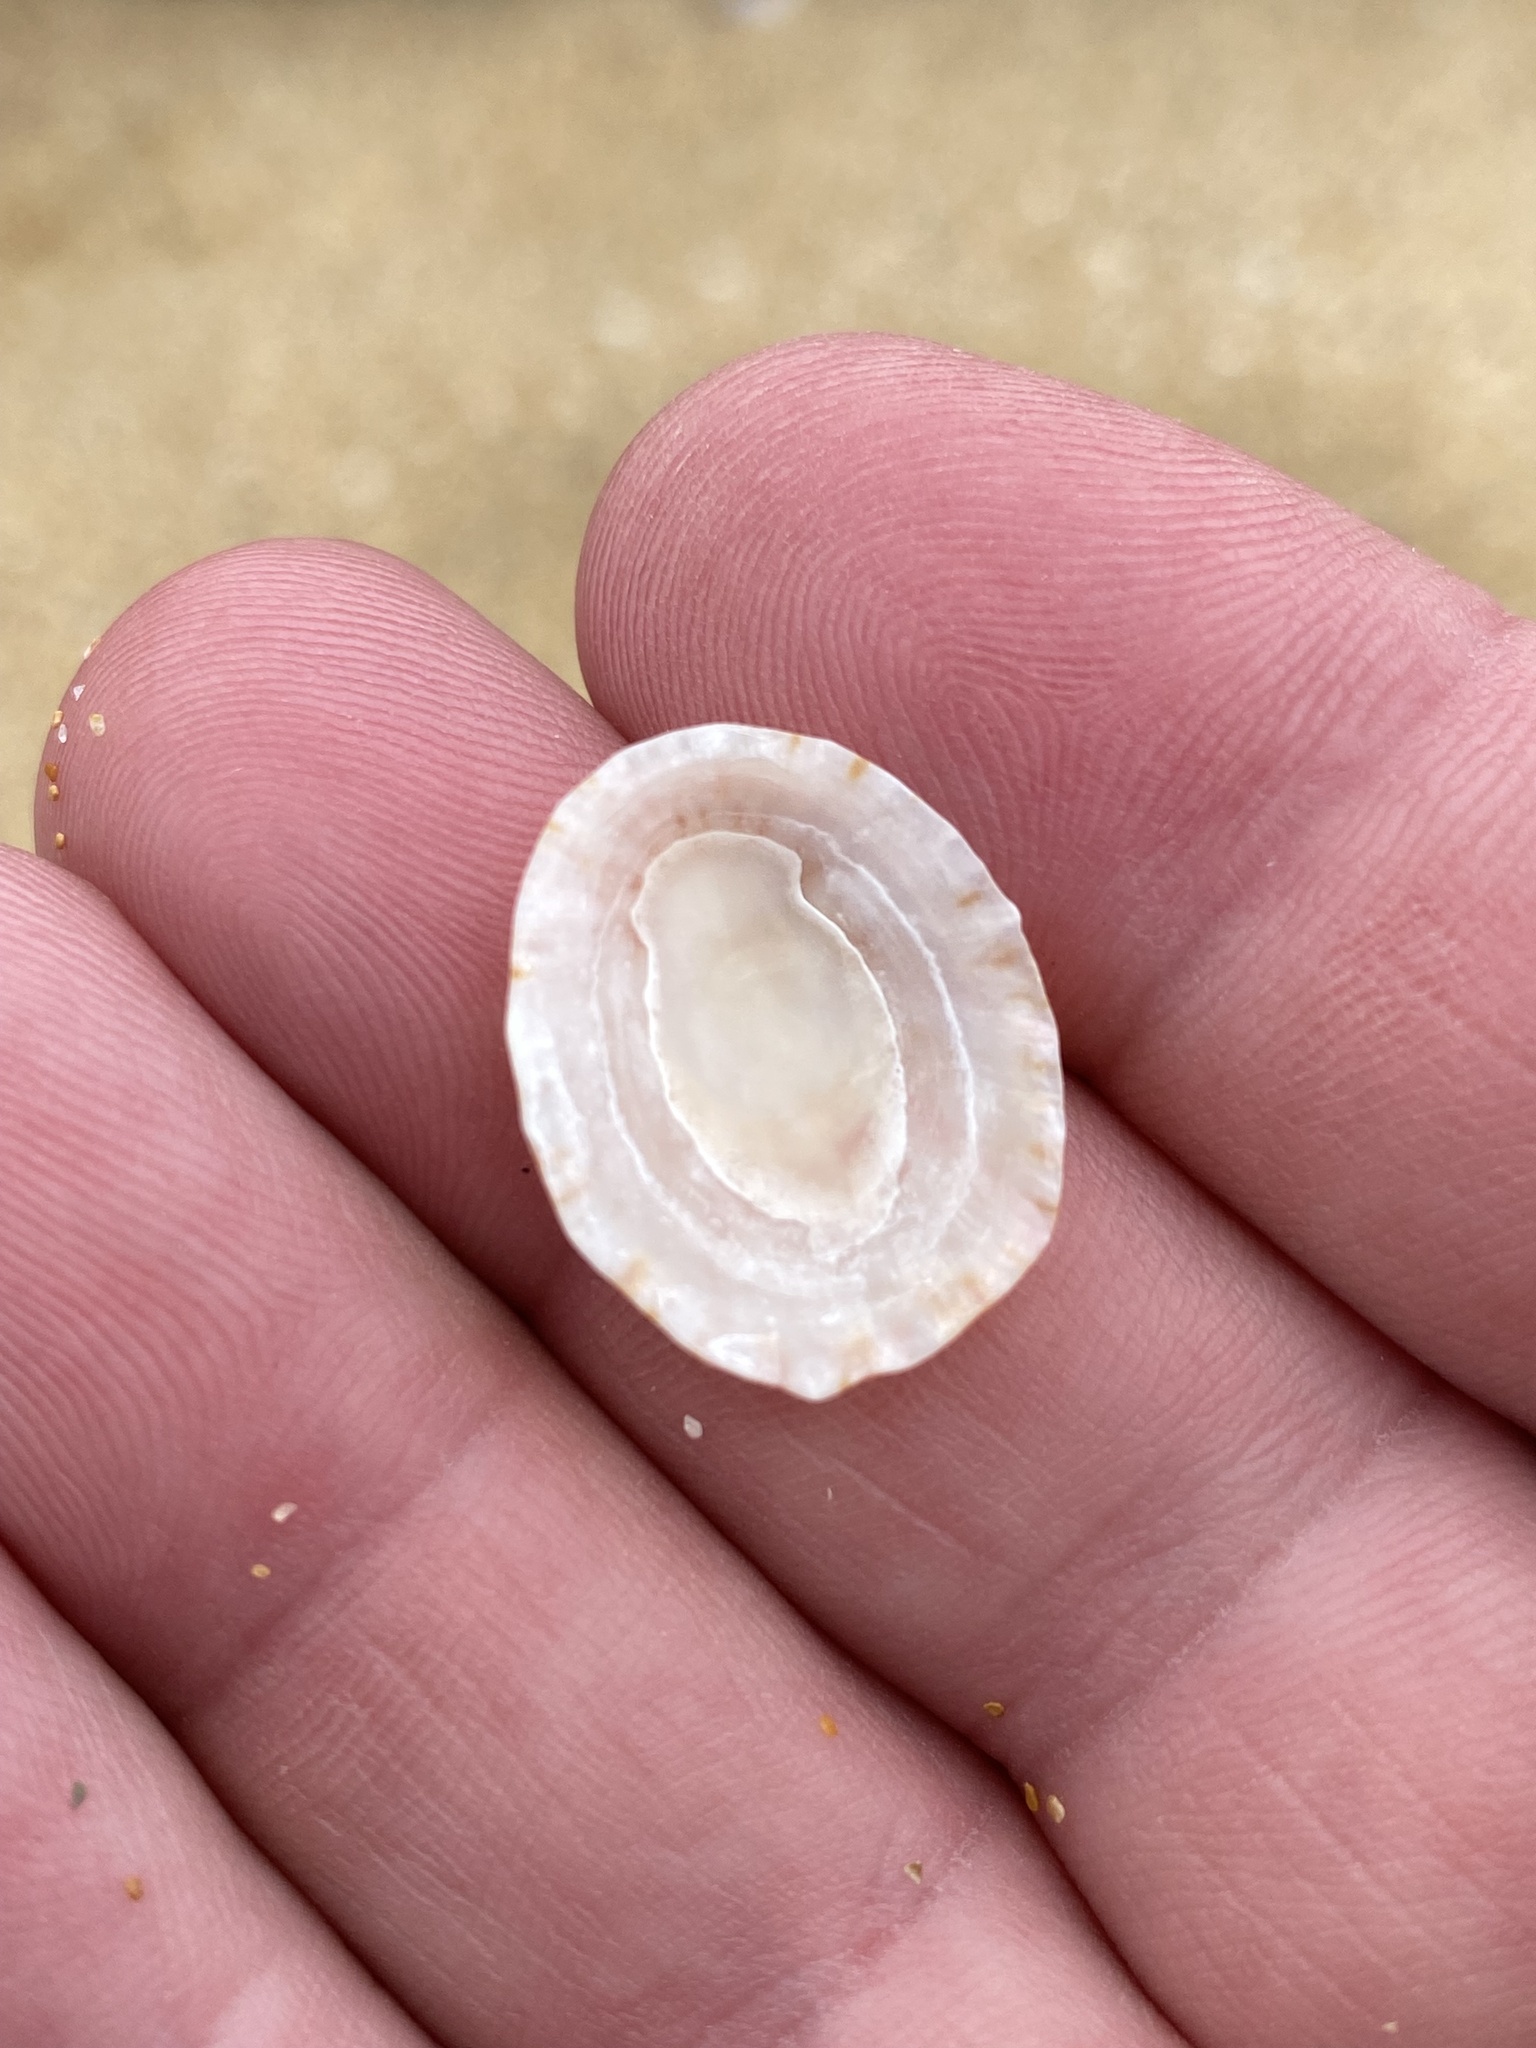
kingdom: Animalia
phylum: Mollusca
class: Gastropoda
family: Nacellidae
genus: Cellana
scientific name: Cellana tramoserica
